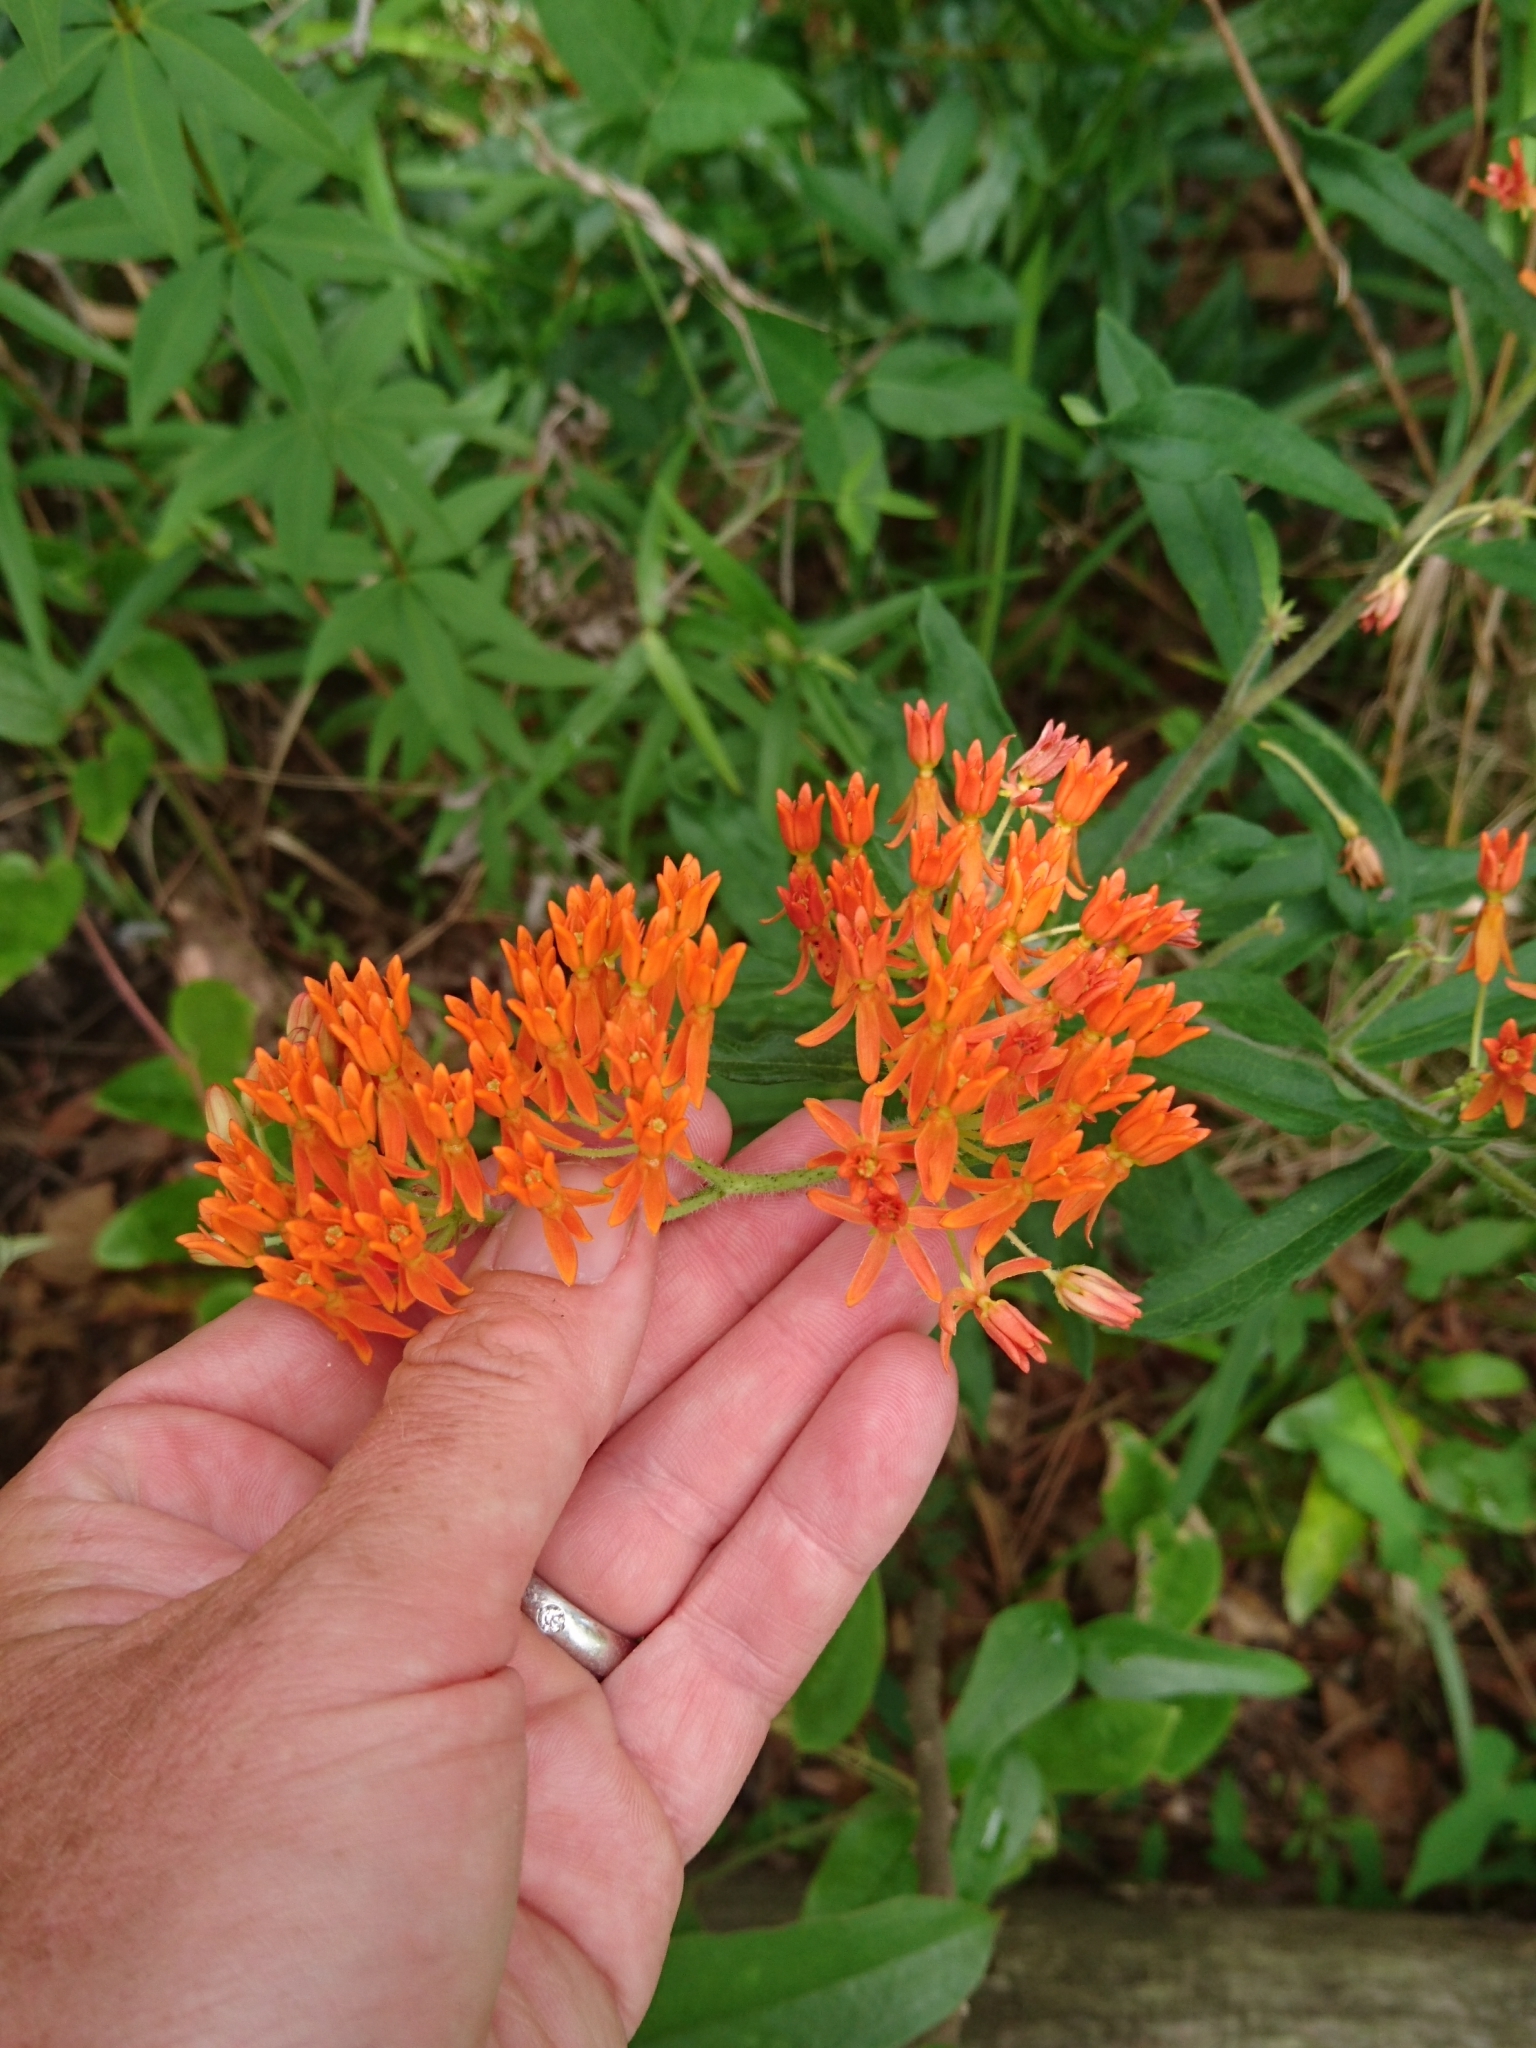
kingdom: Plantae
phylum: Tracheophyta
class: Magnoliopsida
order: Gentianales
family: Apocynaceae
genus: Asclepias
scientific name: Asclepias tuberosa
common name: Butterfly milkweed
